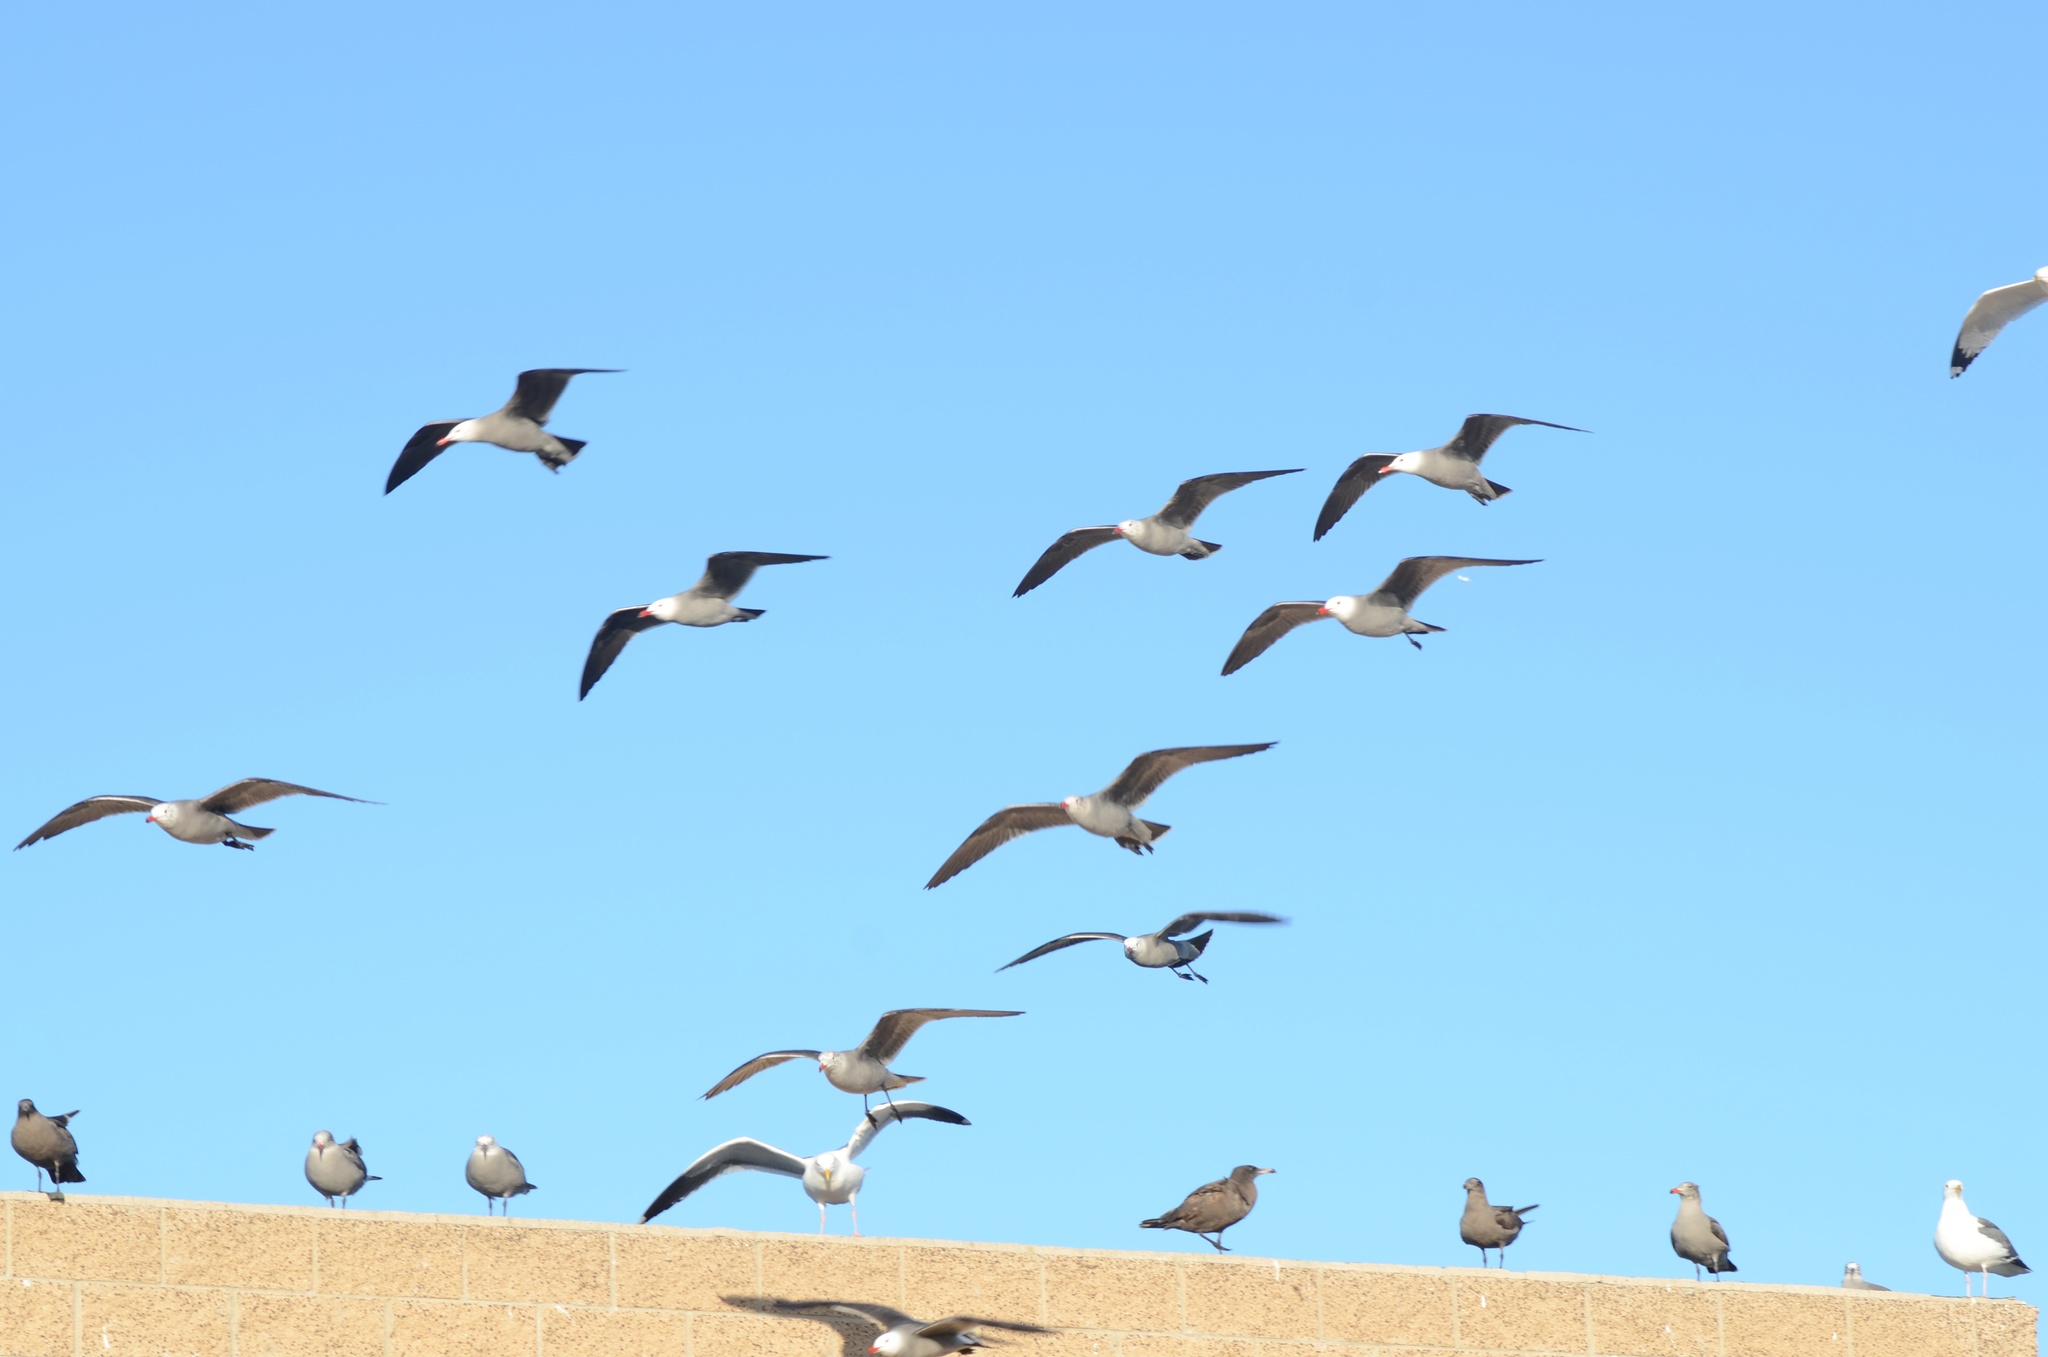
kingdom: Animalia
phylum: Chordata
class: Aves
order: Charadriiformes
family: Laridae
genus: Larus
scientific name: Larus heermanni
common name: Heermann's gull
